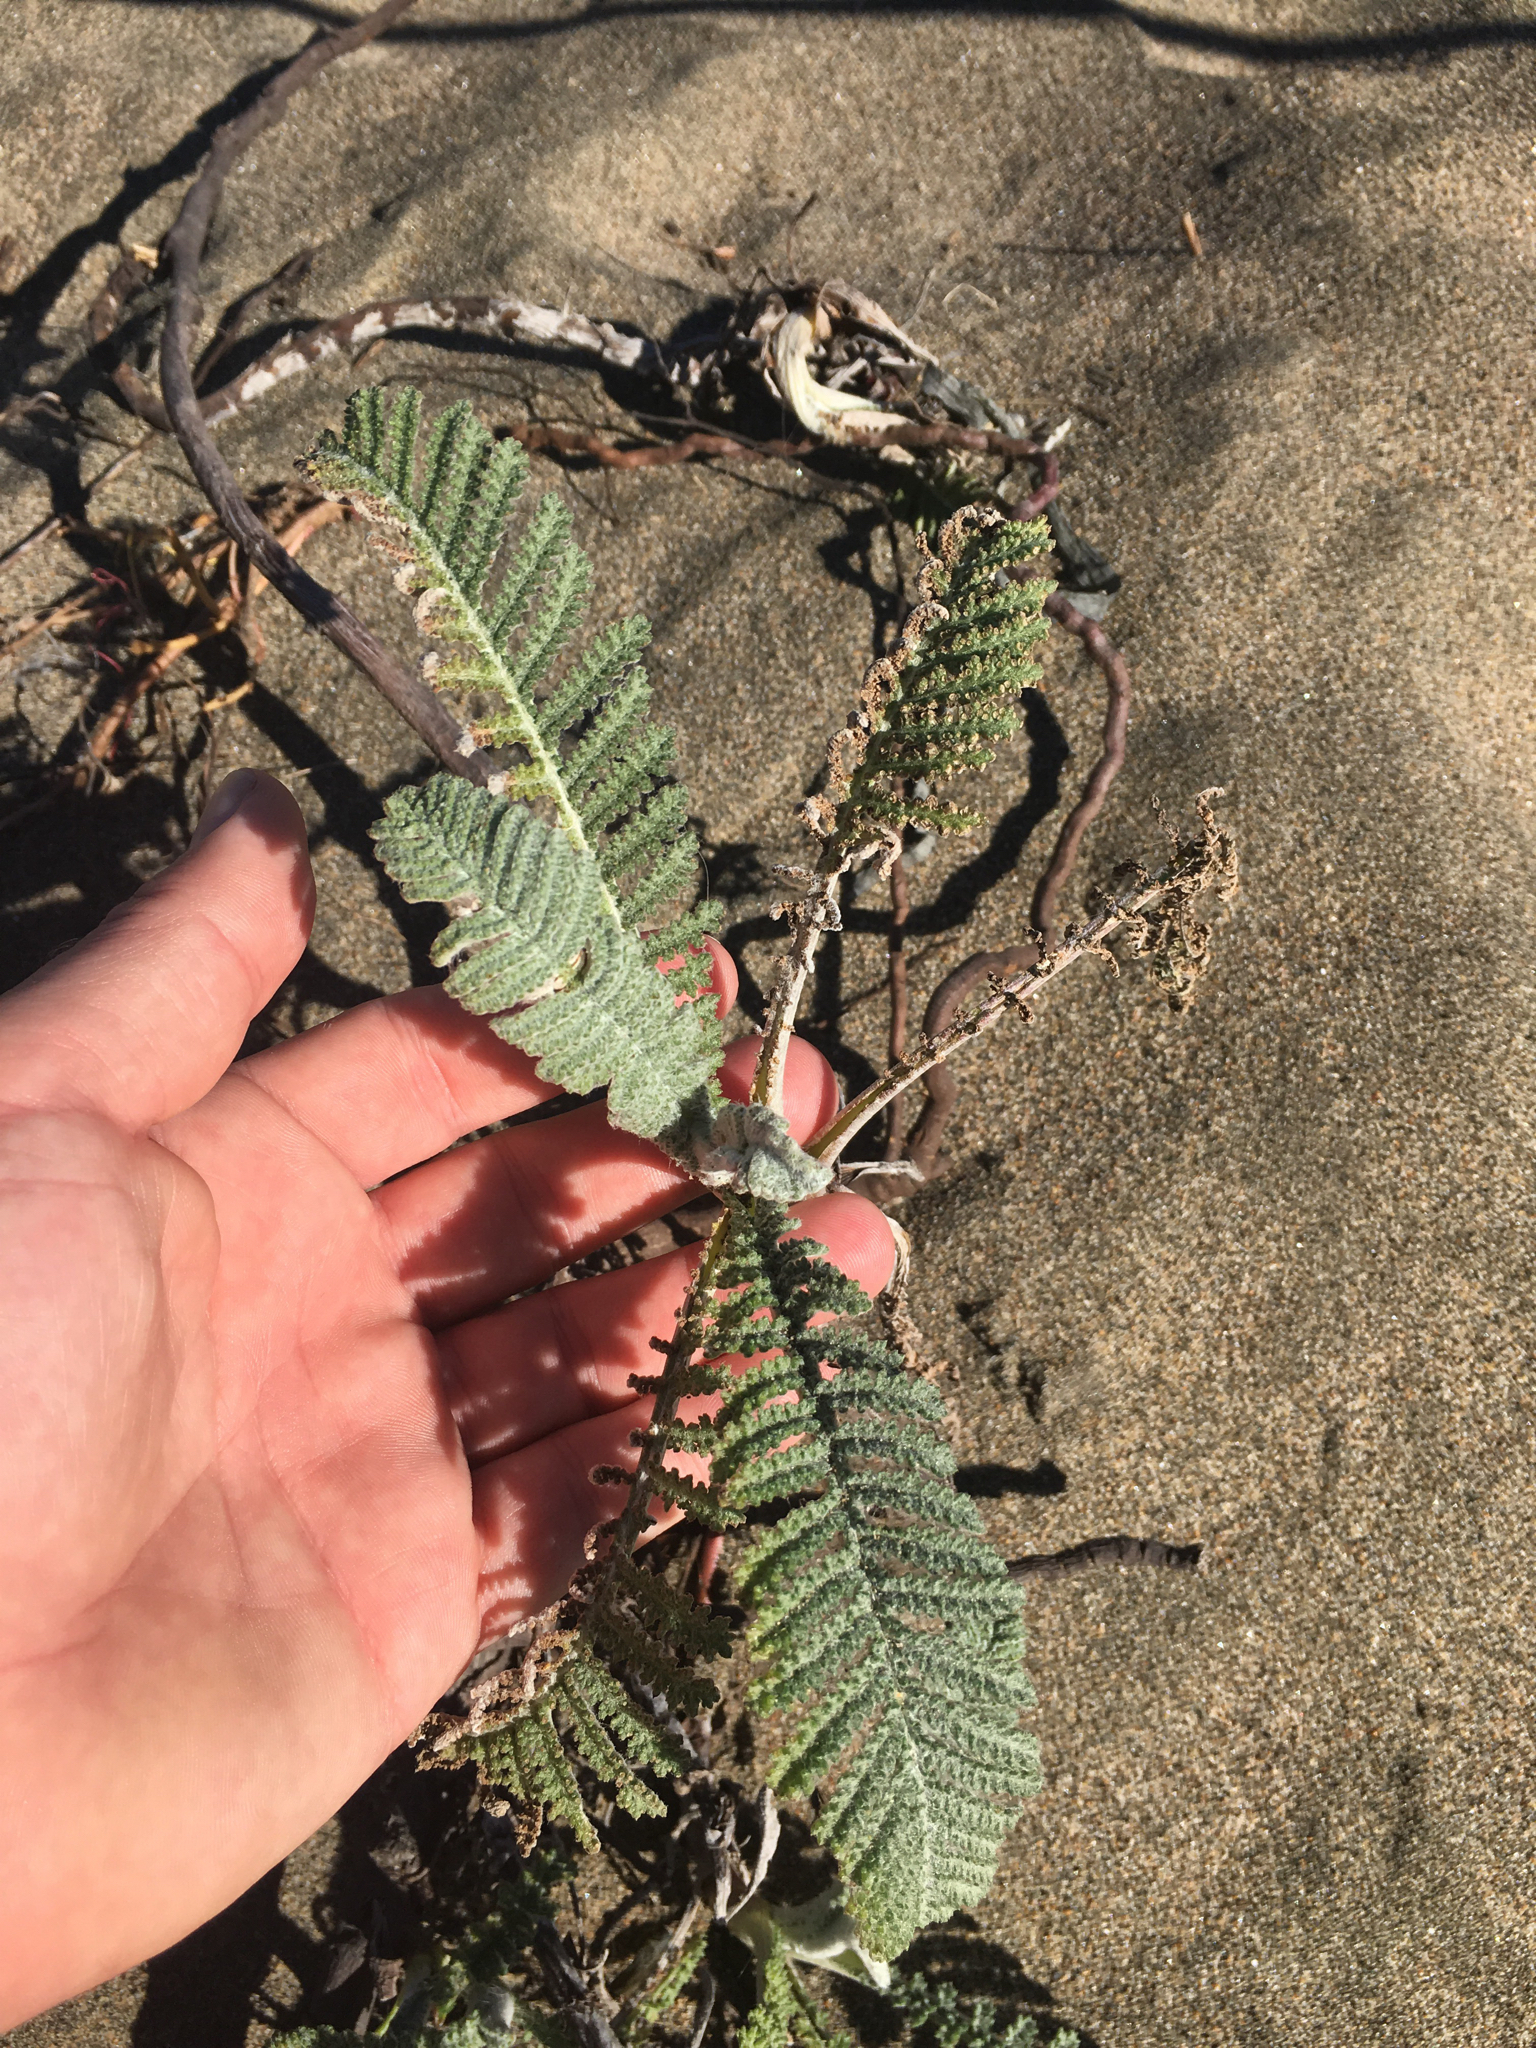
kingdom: Plantae
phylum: Tracheophyta
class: Magnoliopsida
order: Asterales
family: Asteraceae
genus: Tanacetum
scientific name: Tanacetum bipinnatum
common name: Dwarf tansy
